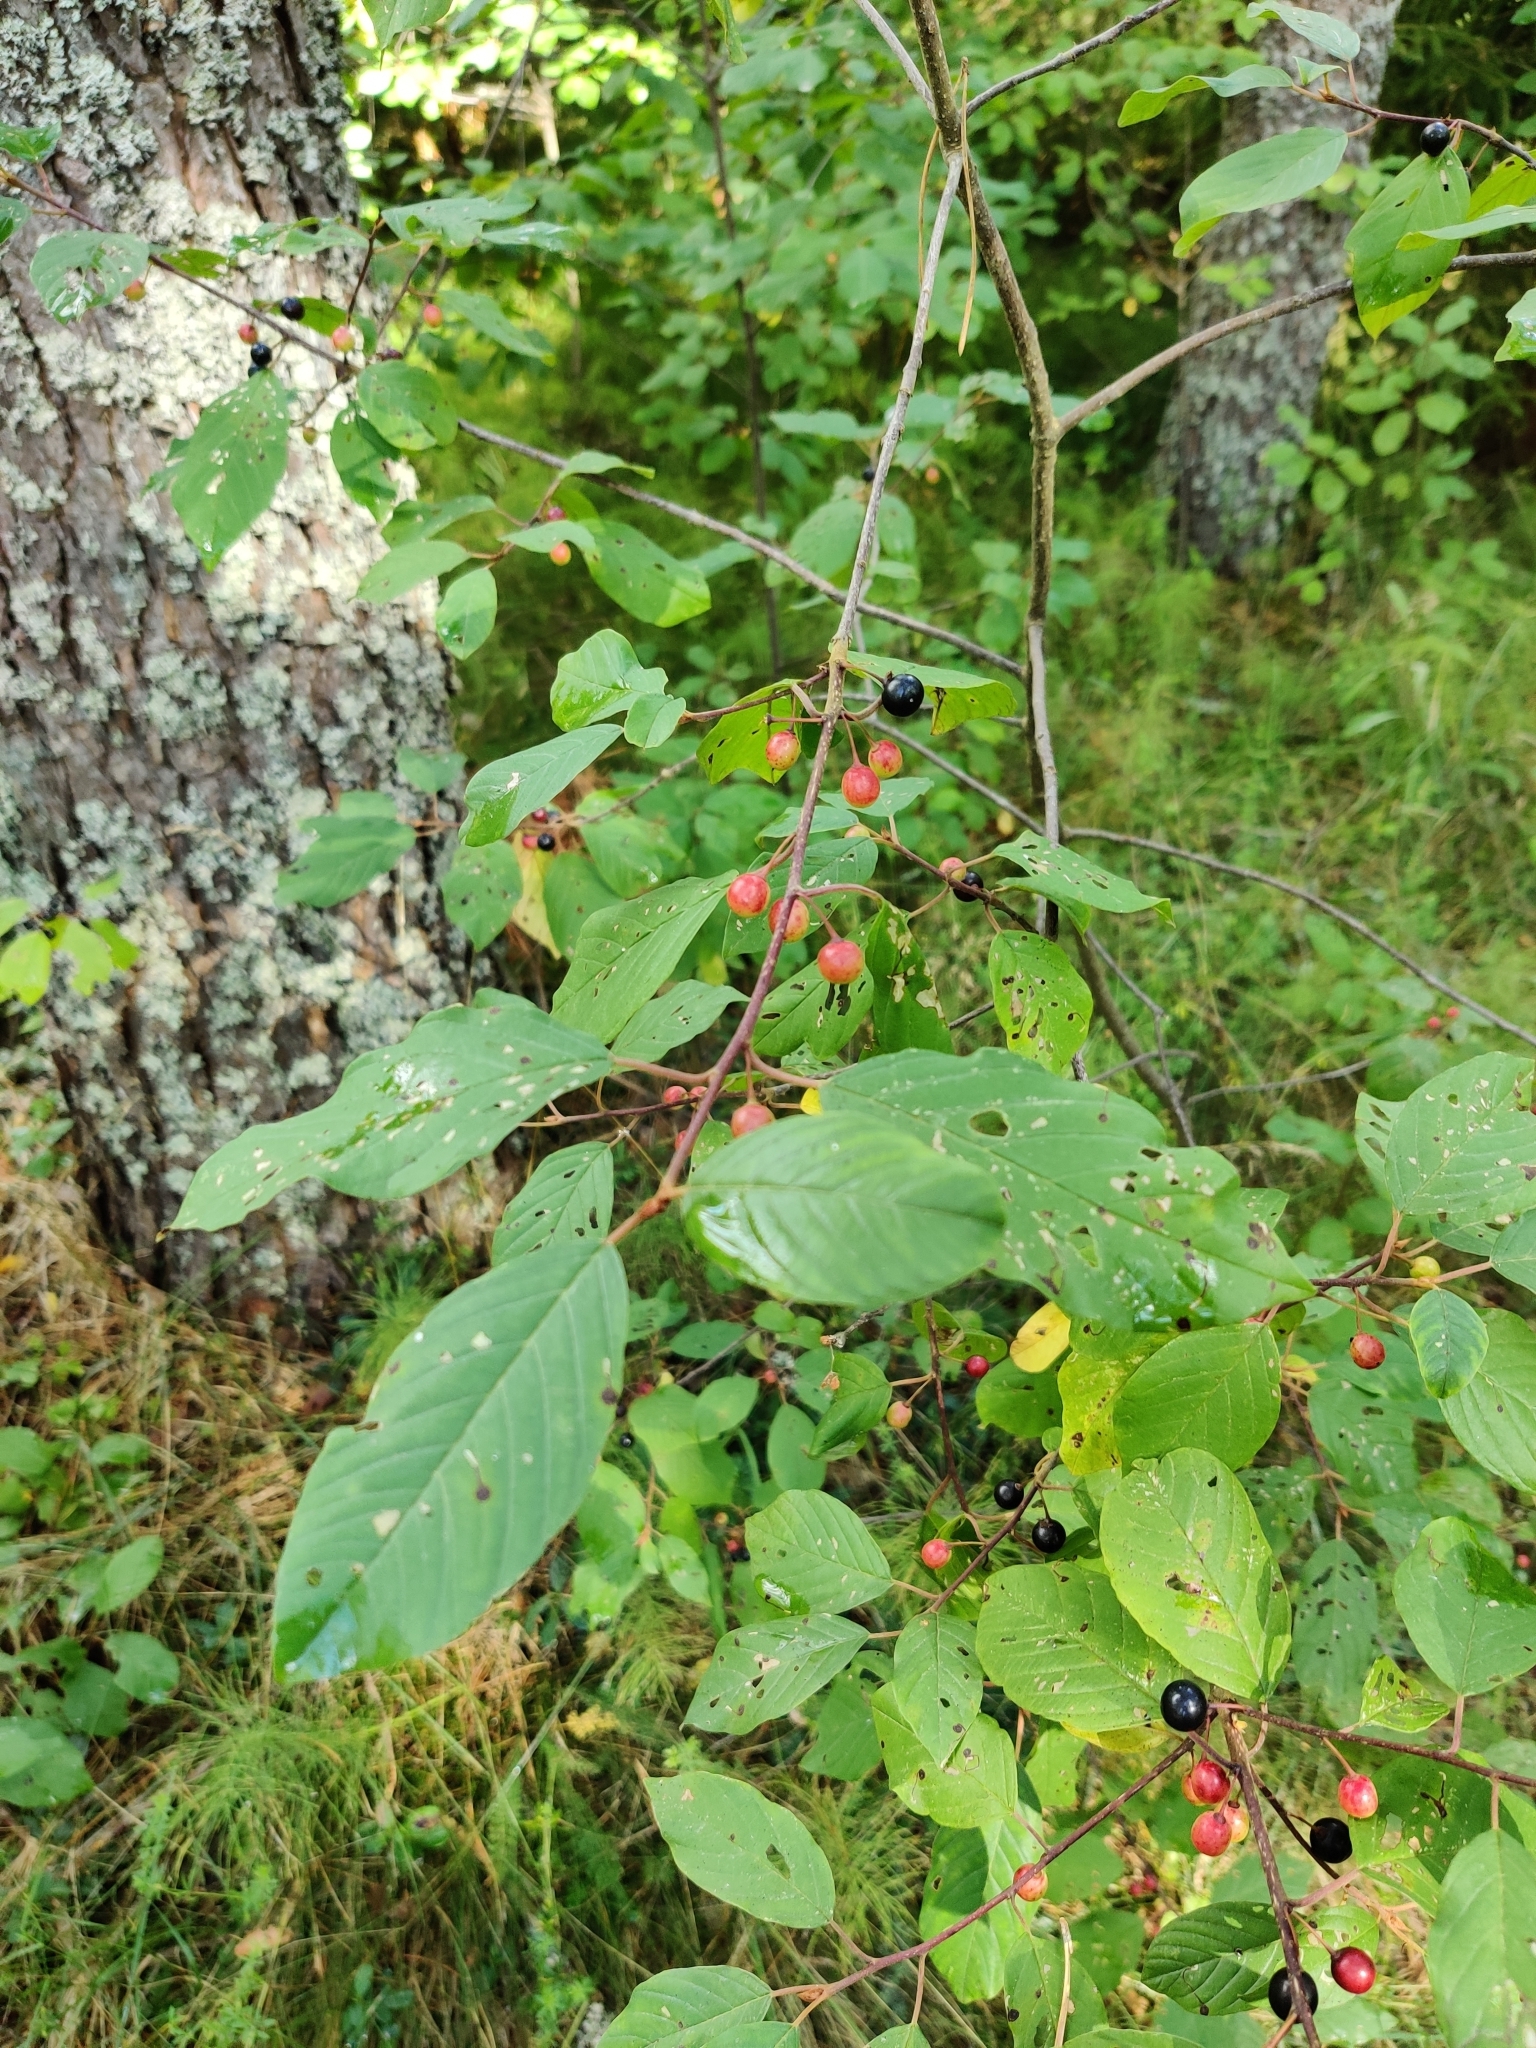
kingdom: Plantae
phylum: Tracheophyta
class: Magnoliopsida
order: Rosales
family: Rhamnaceae
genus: Frangula
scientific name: Frangula alnus
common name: Alder buckthorn
